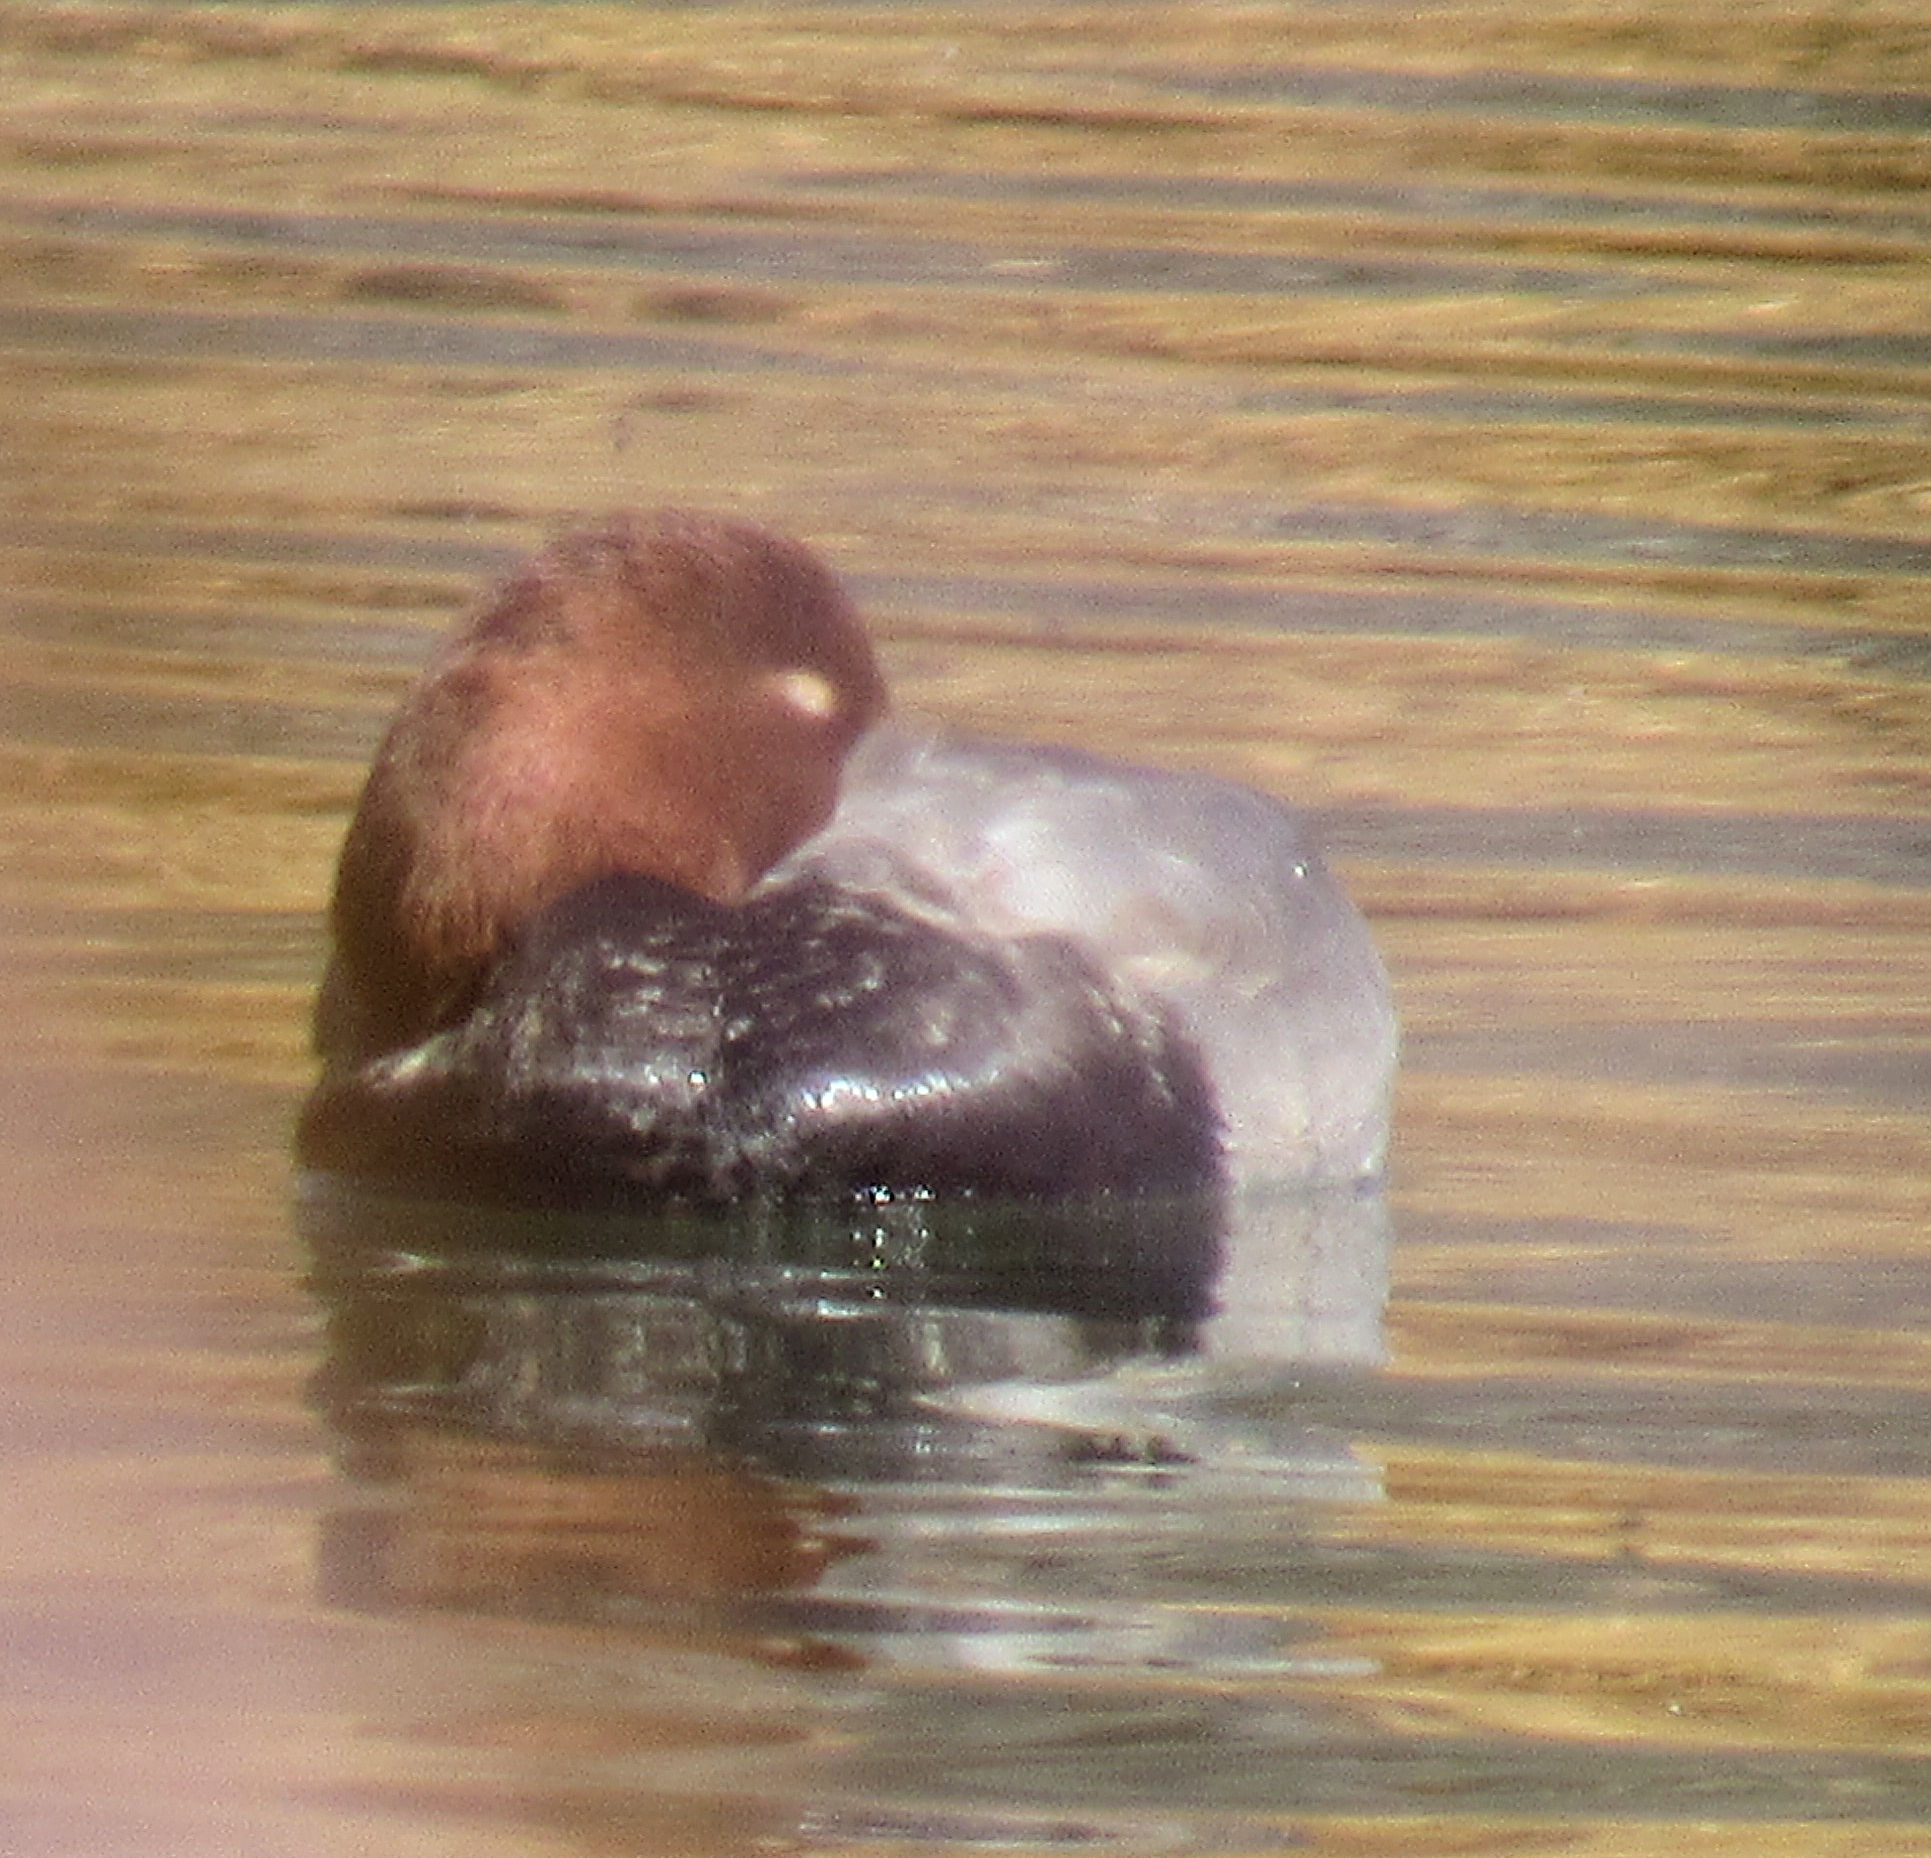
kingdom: Animalia
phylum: Chordata
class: Aves
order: Anseriformes
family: Anatidae
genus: Aythya
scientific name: Aythya americana
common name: Redhead
